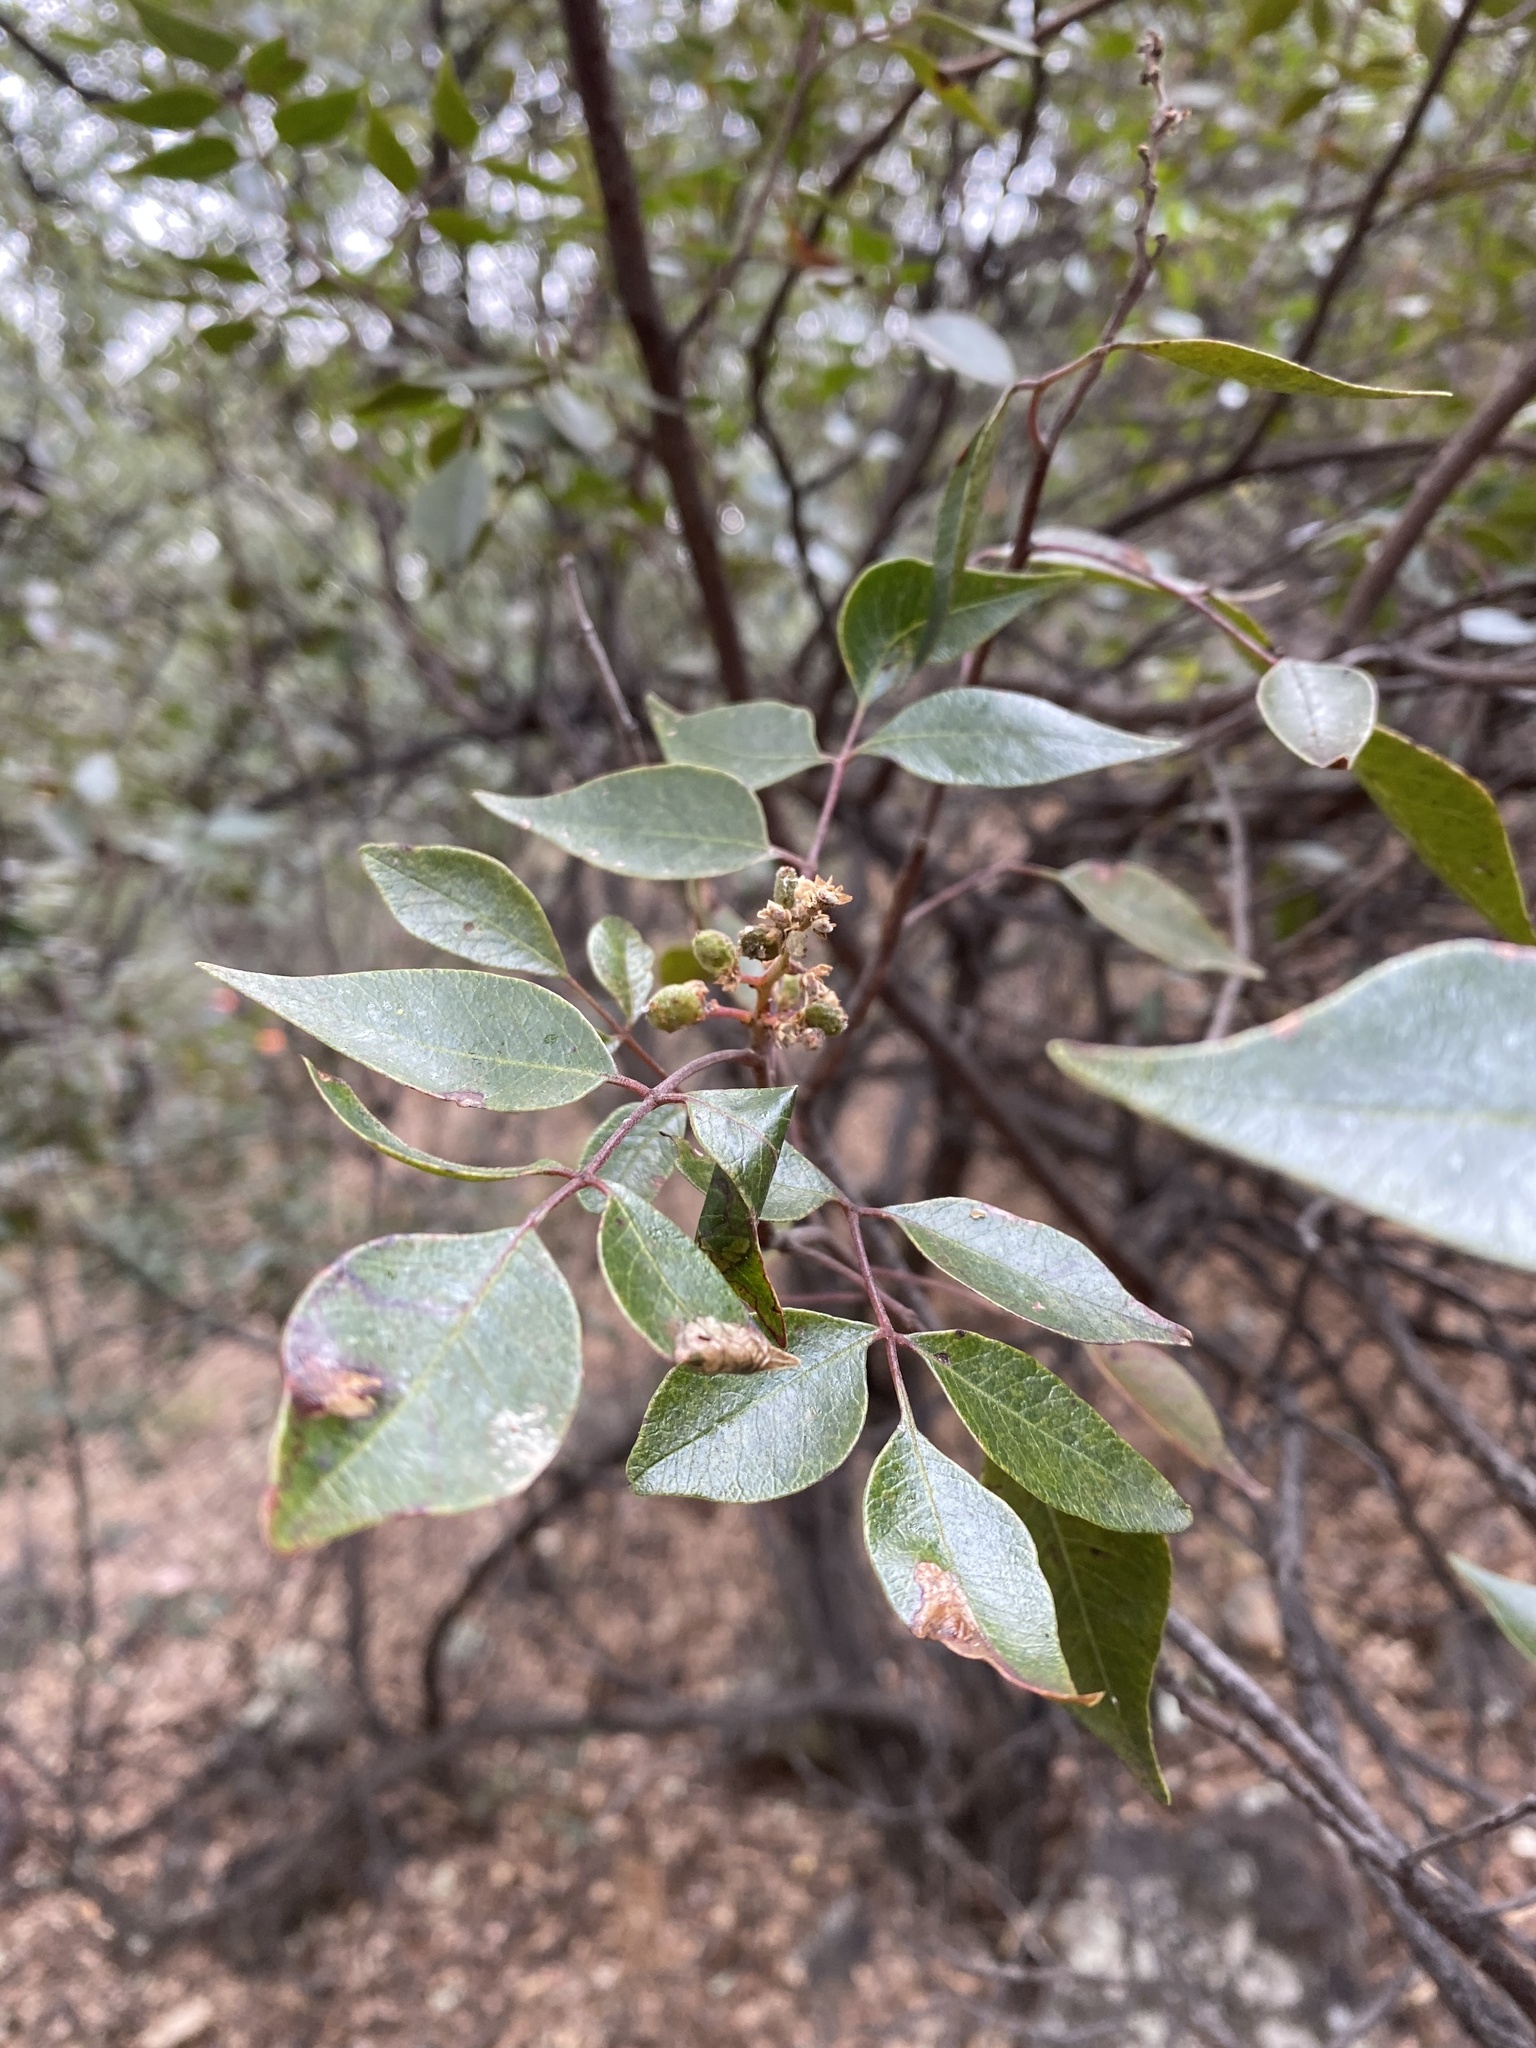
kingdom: Plantae
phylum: Tracheophyta
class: Magnoliopsida
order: Sapindales
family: Anacardiaceae
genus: Rhus
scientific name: Rhus virens
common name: Evergreen sumac
